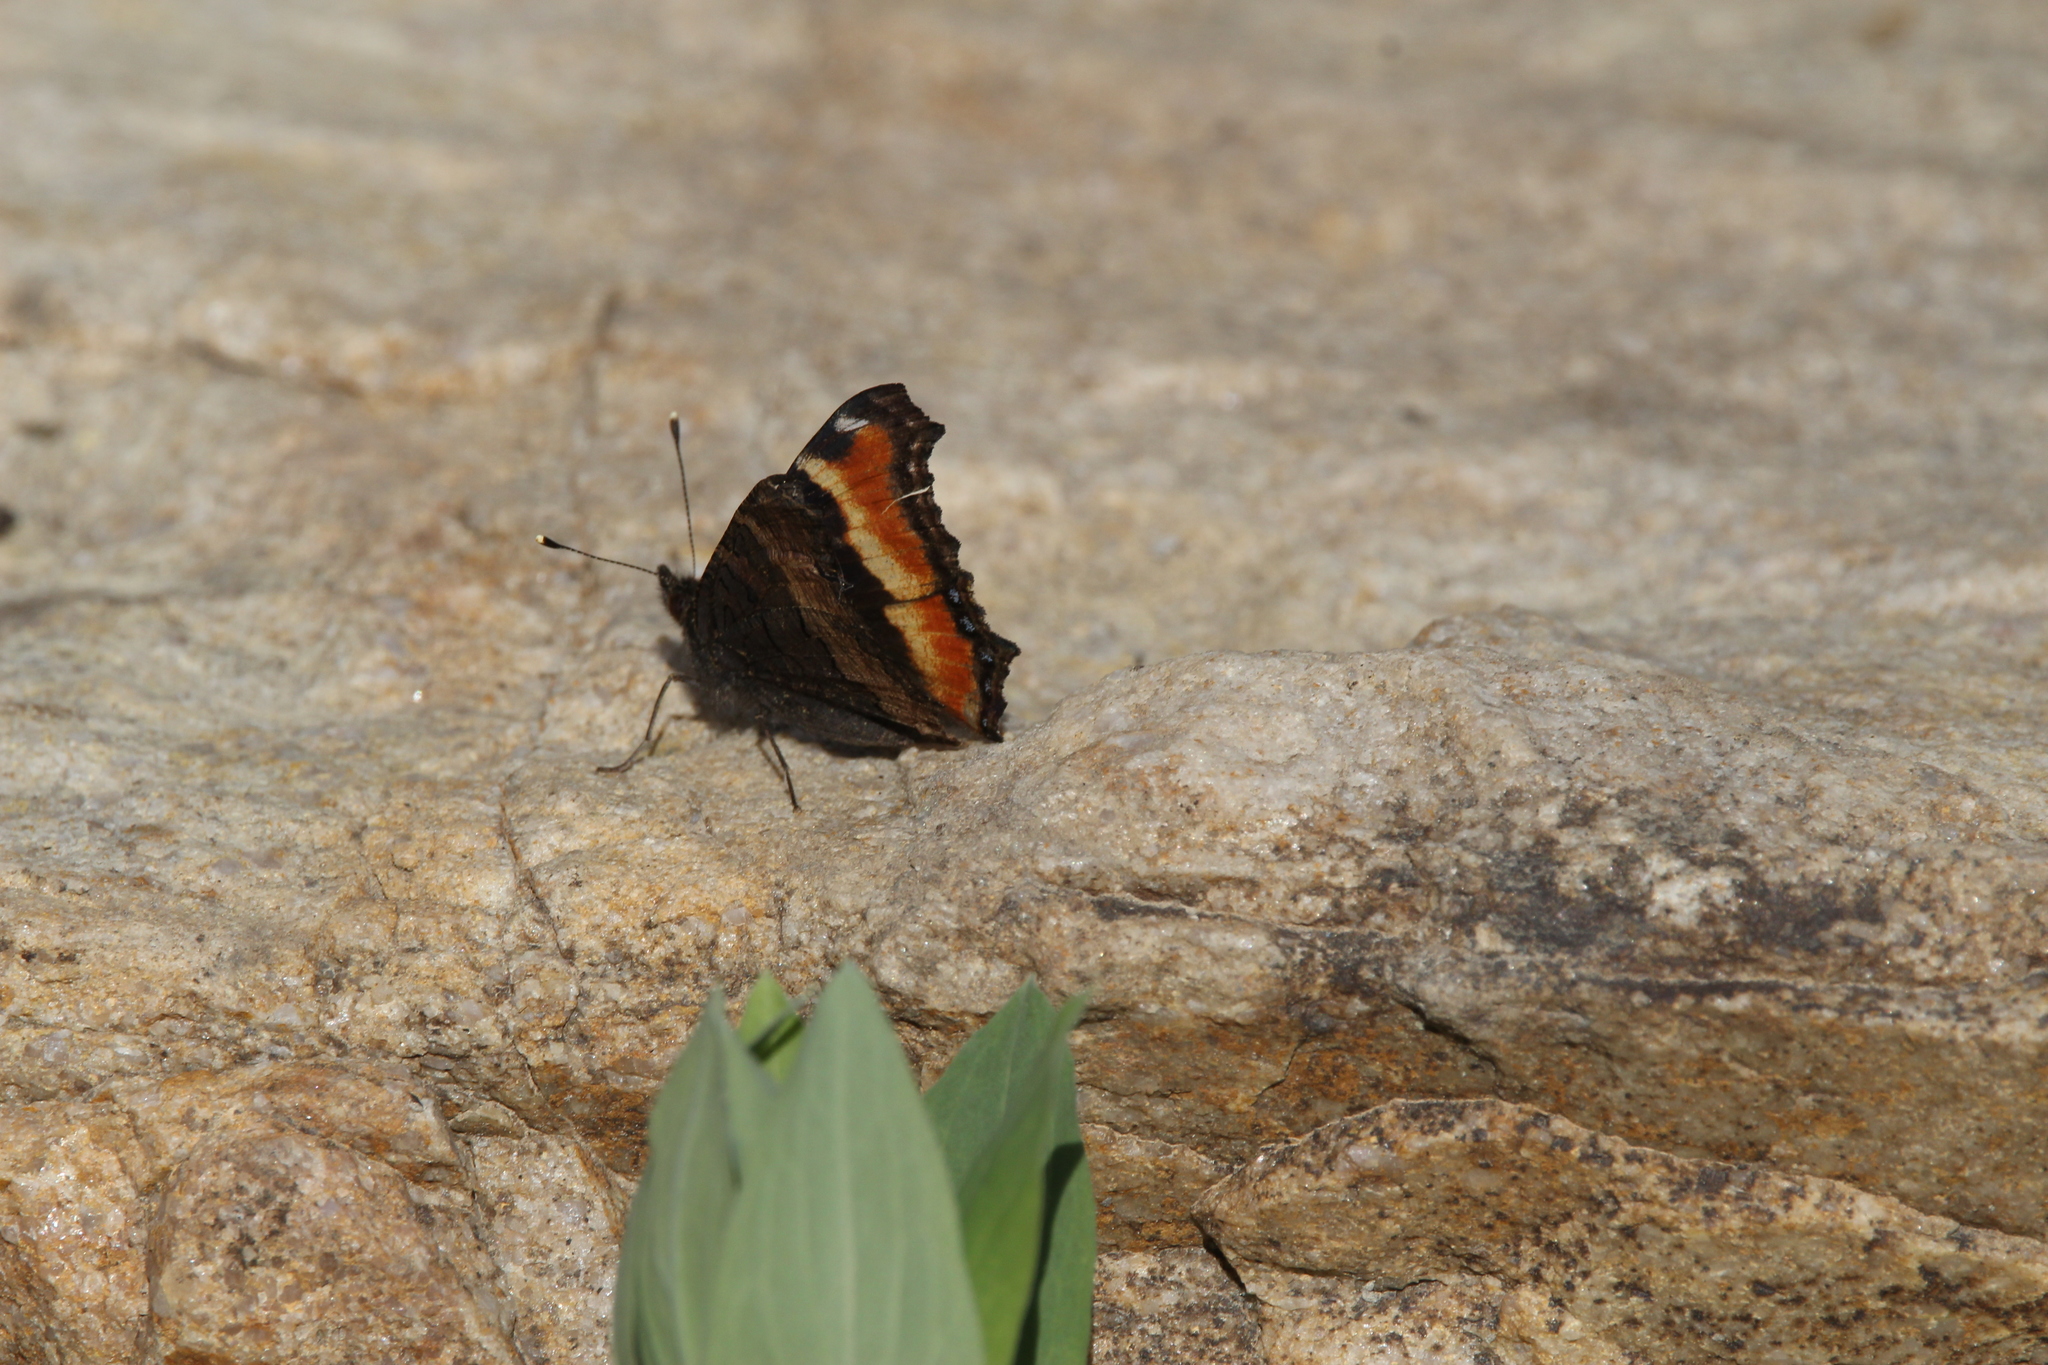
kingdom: Animalia
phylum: Arthropoda
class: Insecta
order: Lepidoptera
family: Nymphalidae
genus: Aglais
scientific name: Aglais milberti
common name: Milbert's tortoiseshell
